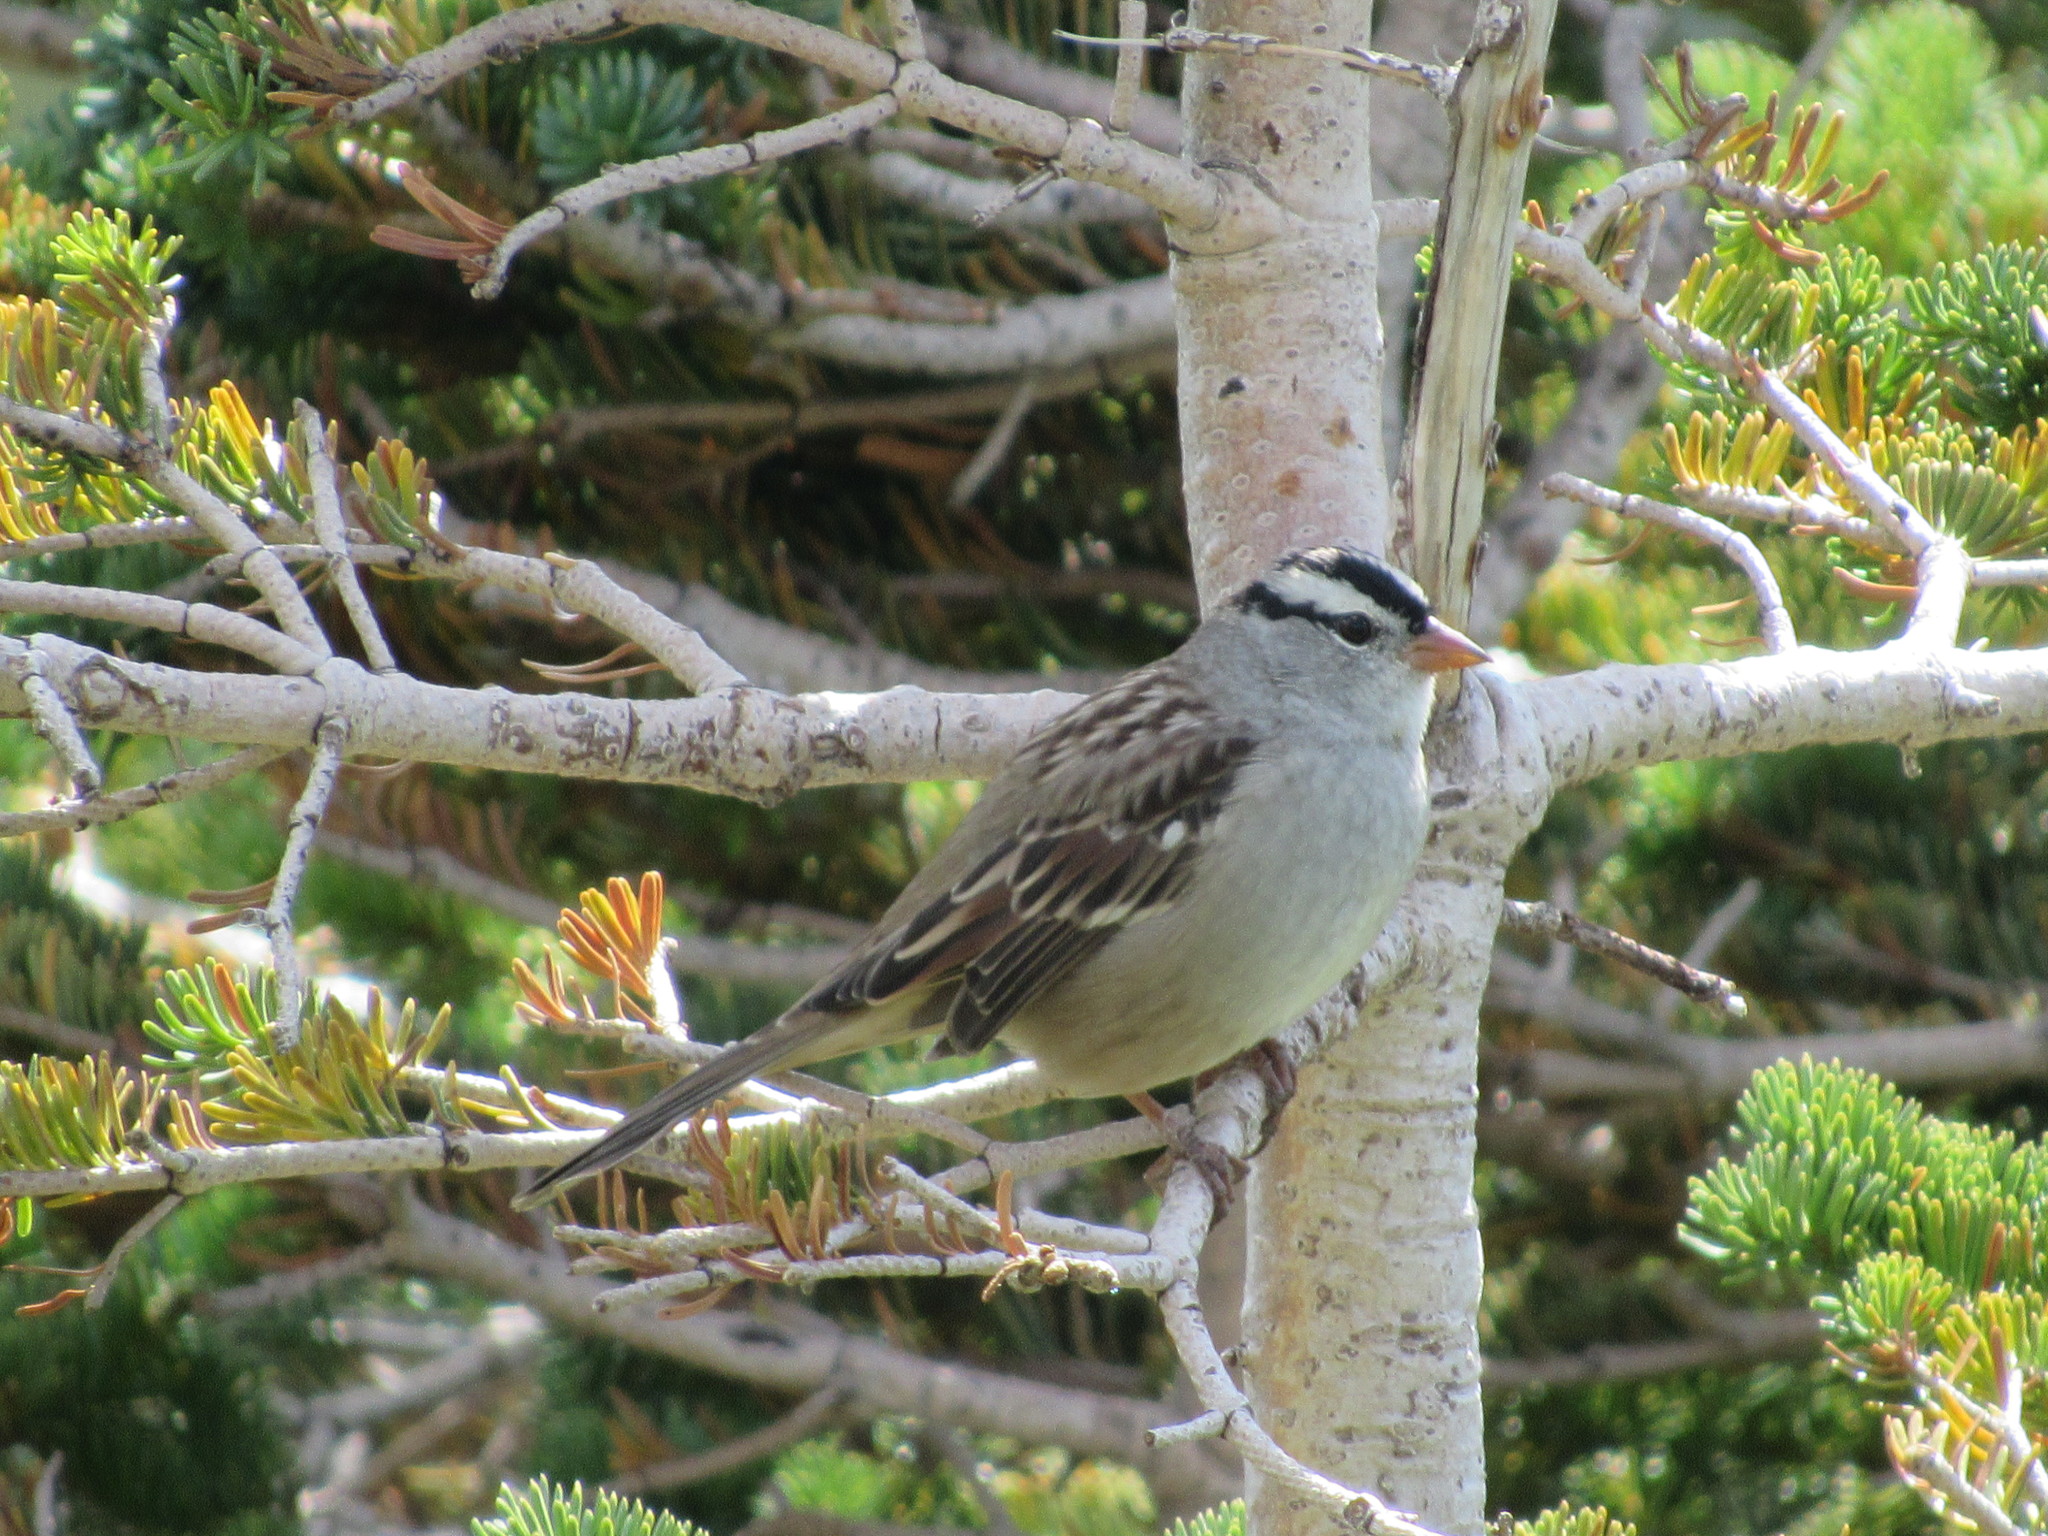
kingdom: Animalia
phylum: Chordata
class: Aves
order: Passeriformes
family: Passerellidae
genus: Zonotrichia
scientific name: Zonotrichia leucophrys
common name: White-crowned sparrow
